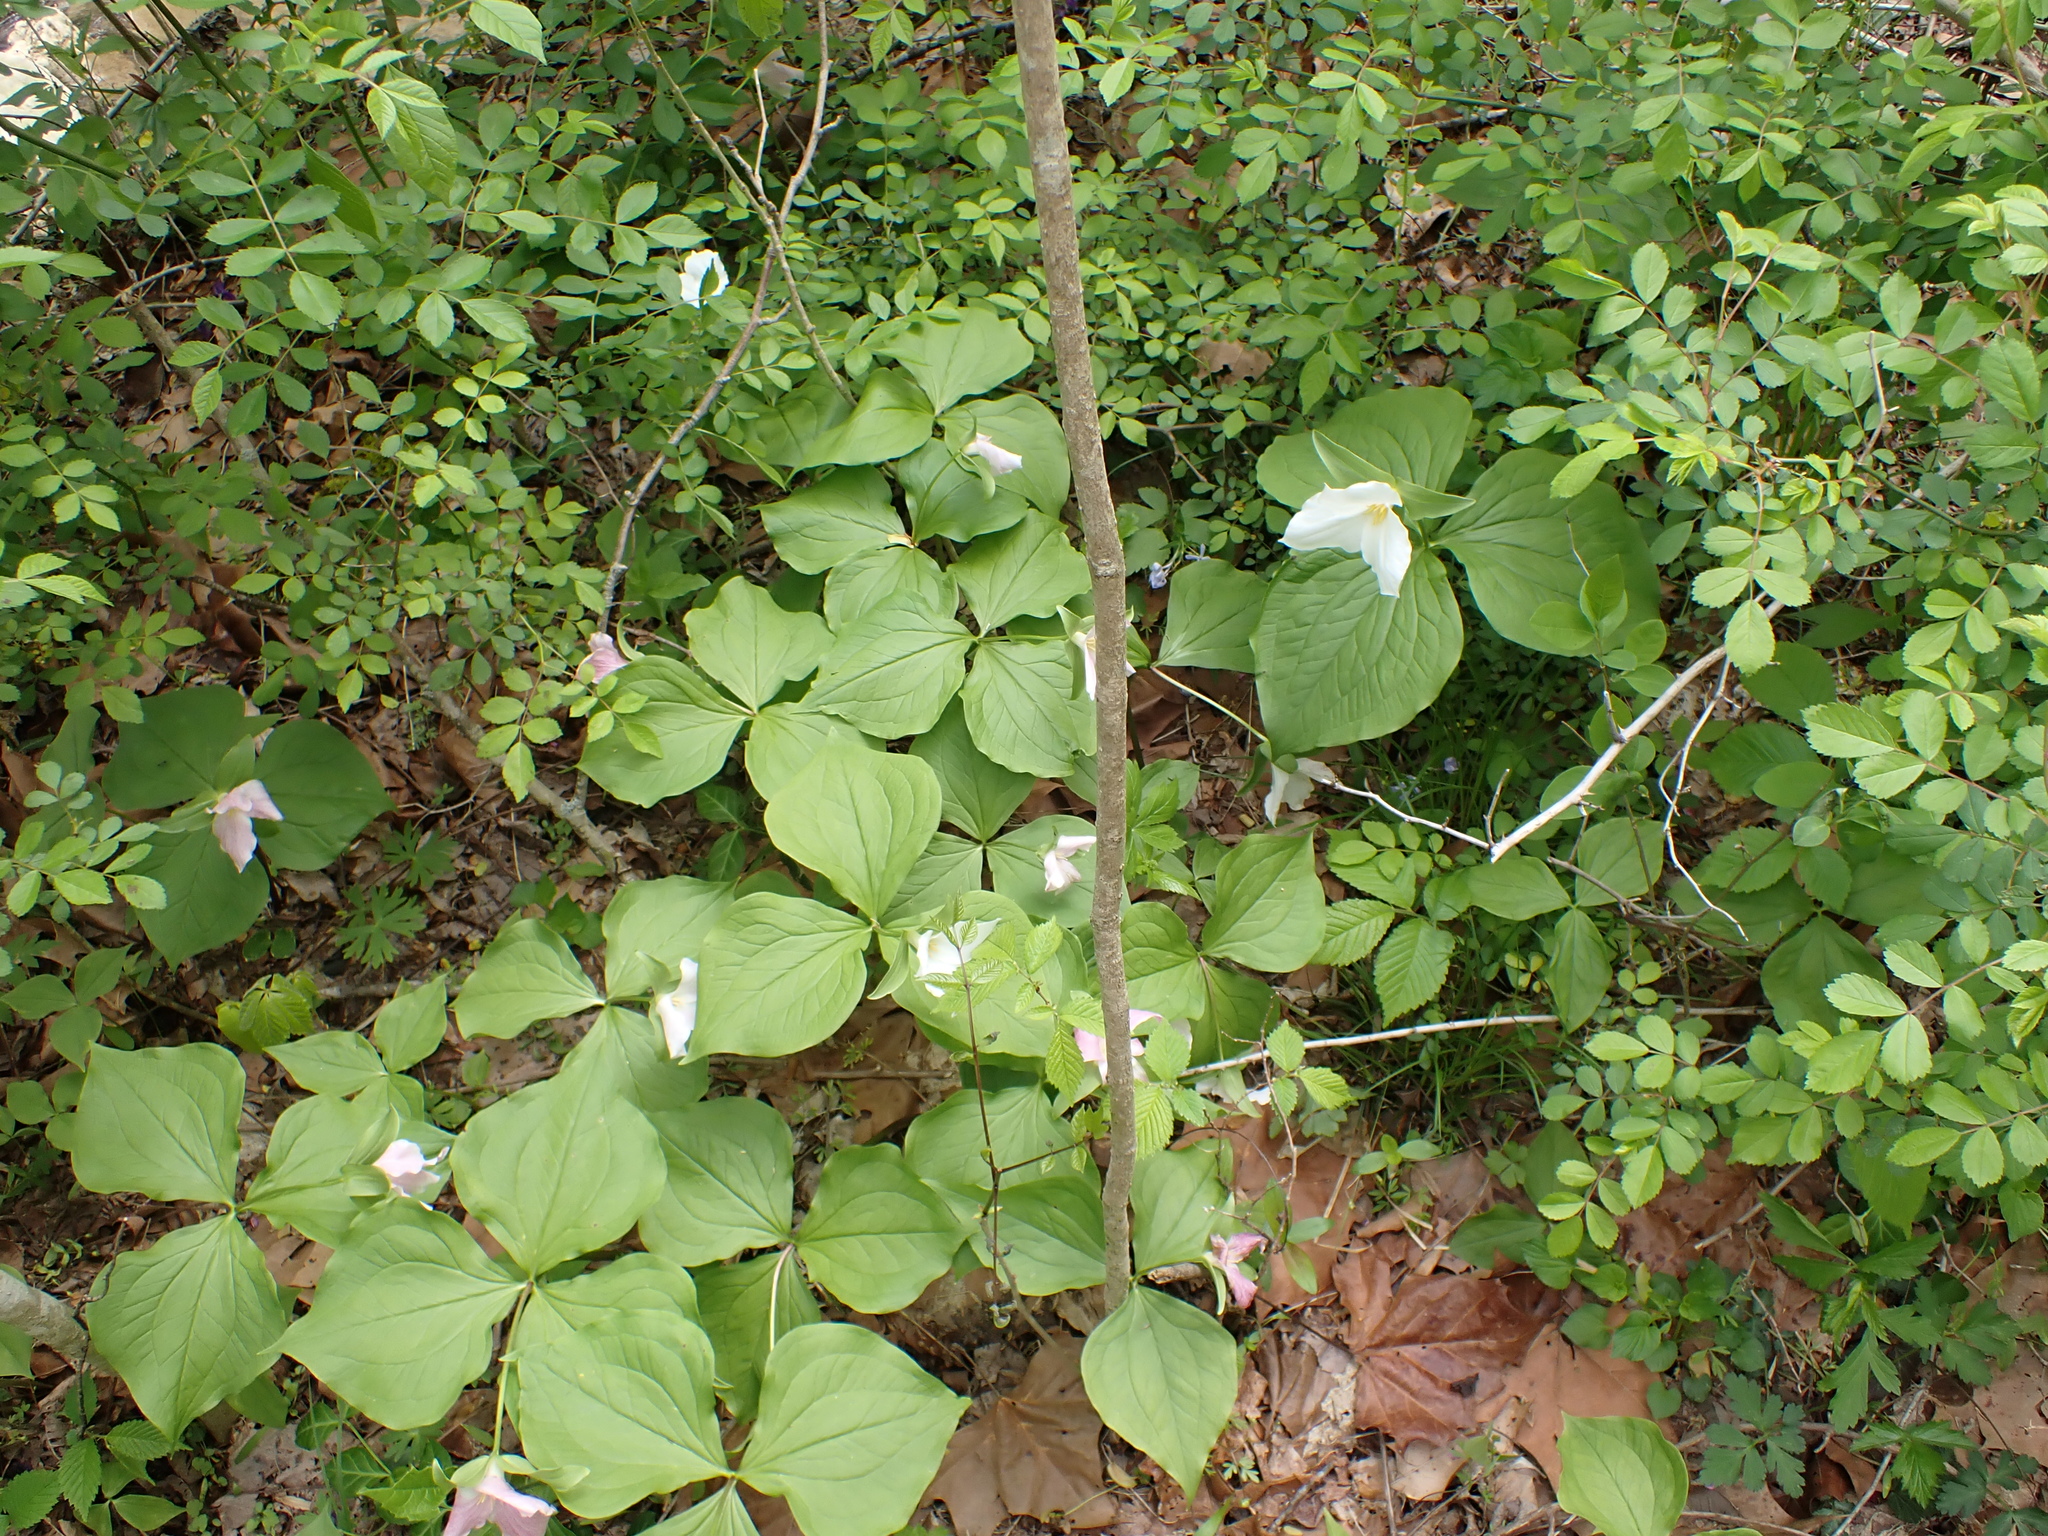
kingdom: Plantae
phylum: Tracheophyta
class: Liliopsida
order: Liliales
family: Melanthiaceae
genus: Trillium
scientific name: Trillium grandiflorum
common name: Great white trillium
